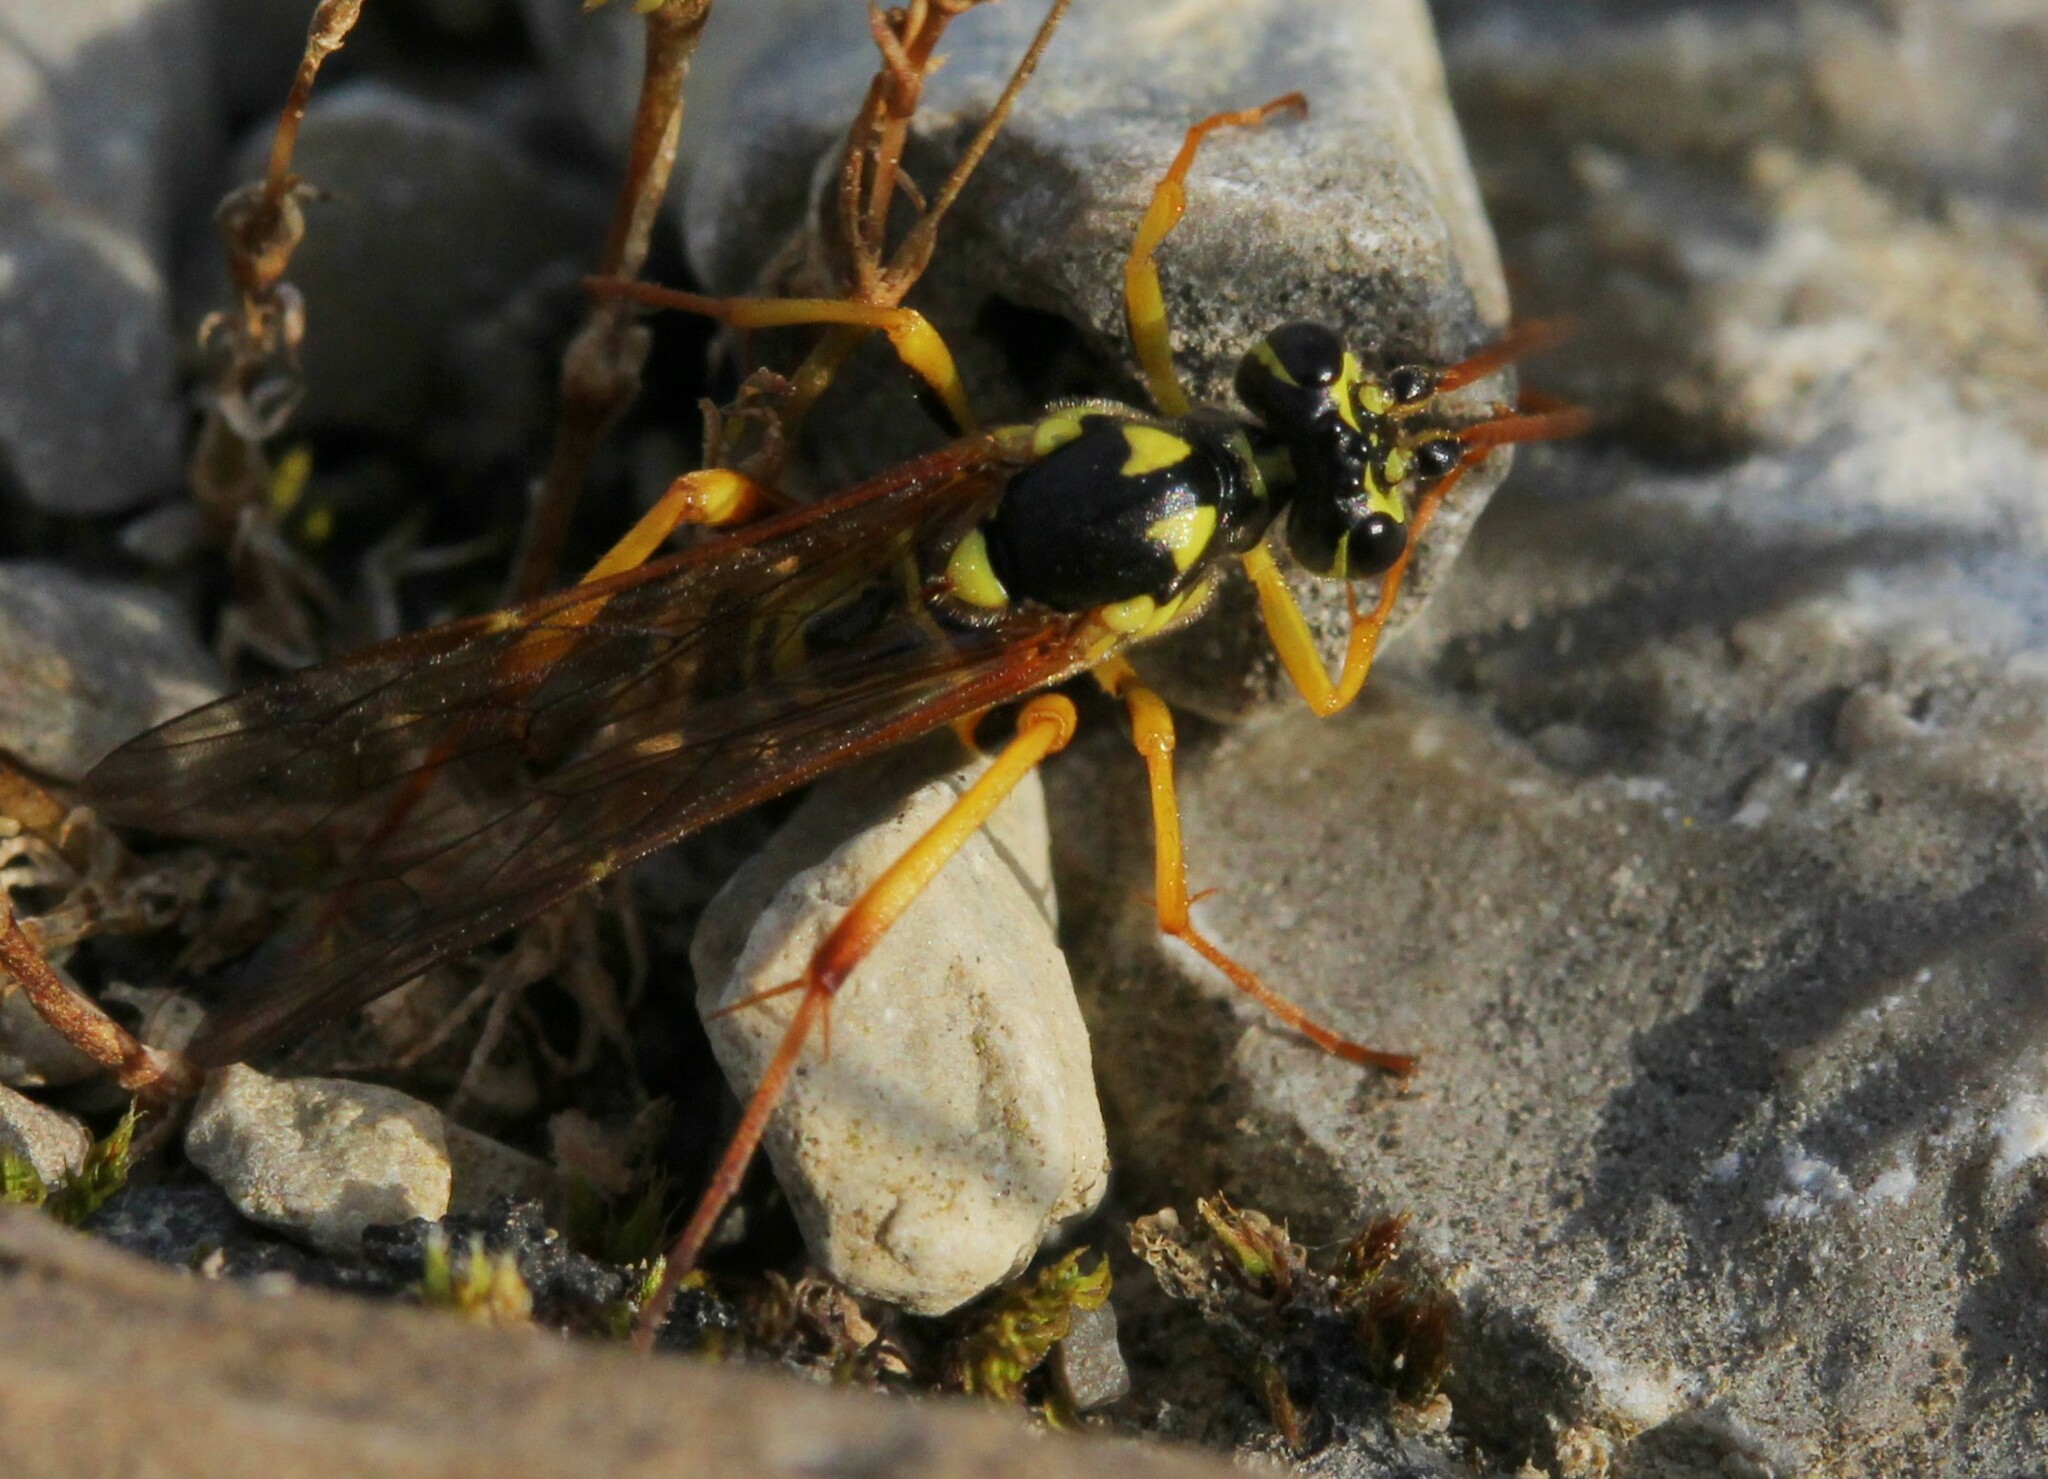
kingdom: Animalia
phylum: Arthropoda
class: Insecta
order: Hymenoptera
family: Ichneumonidae
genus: Banchus
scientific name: Banchus pictus
